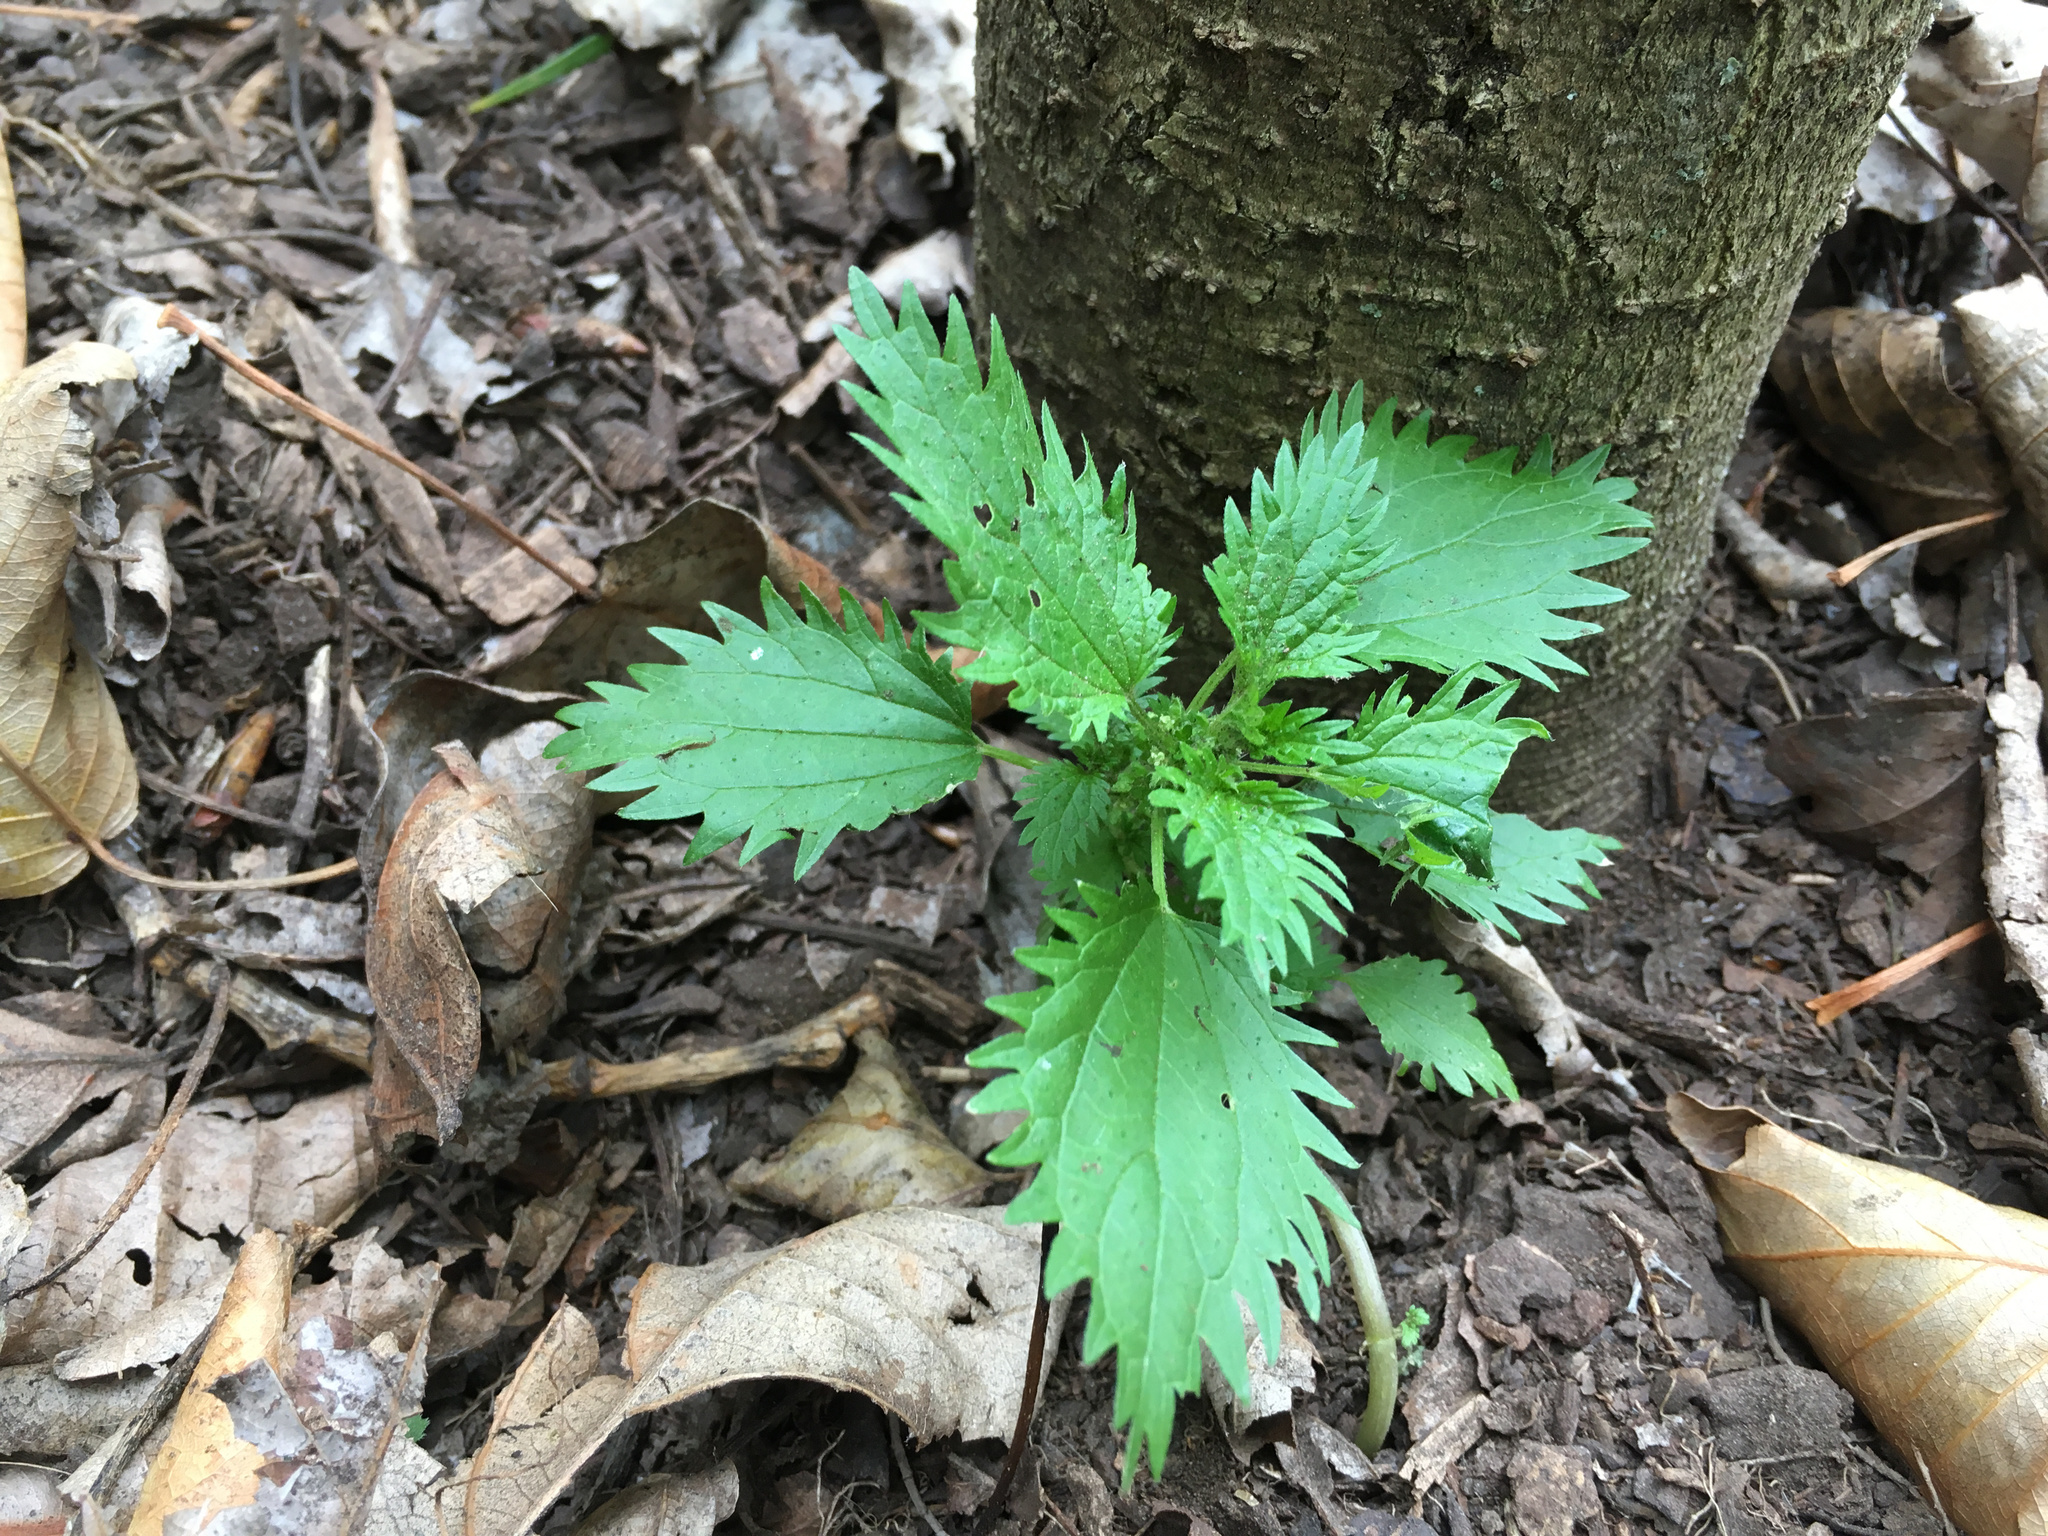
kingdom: Plantae
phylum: Tracheophyta
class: Magnoliopsida
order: Rosales
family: Urticaceae
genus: Urtica
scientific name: Urtica urens
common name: Dwarf nettle
